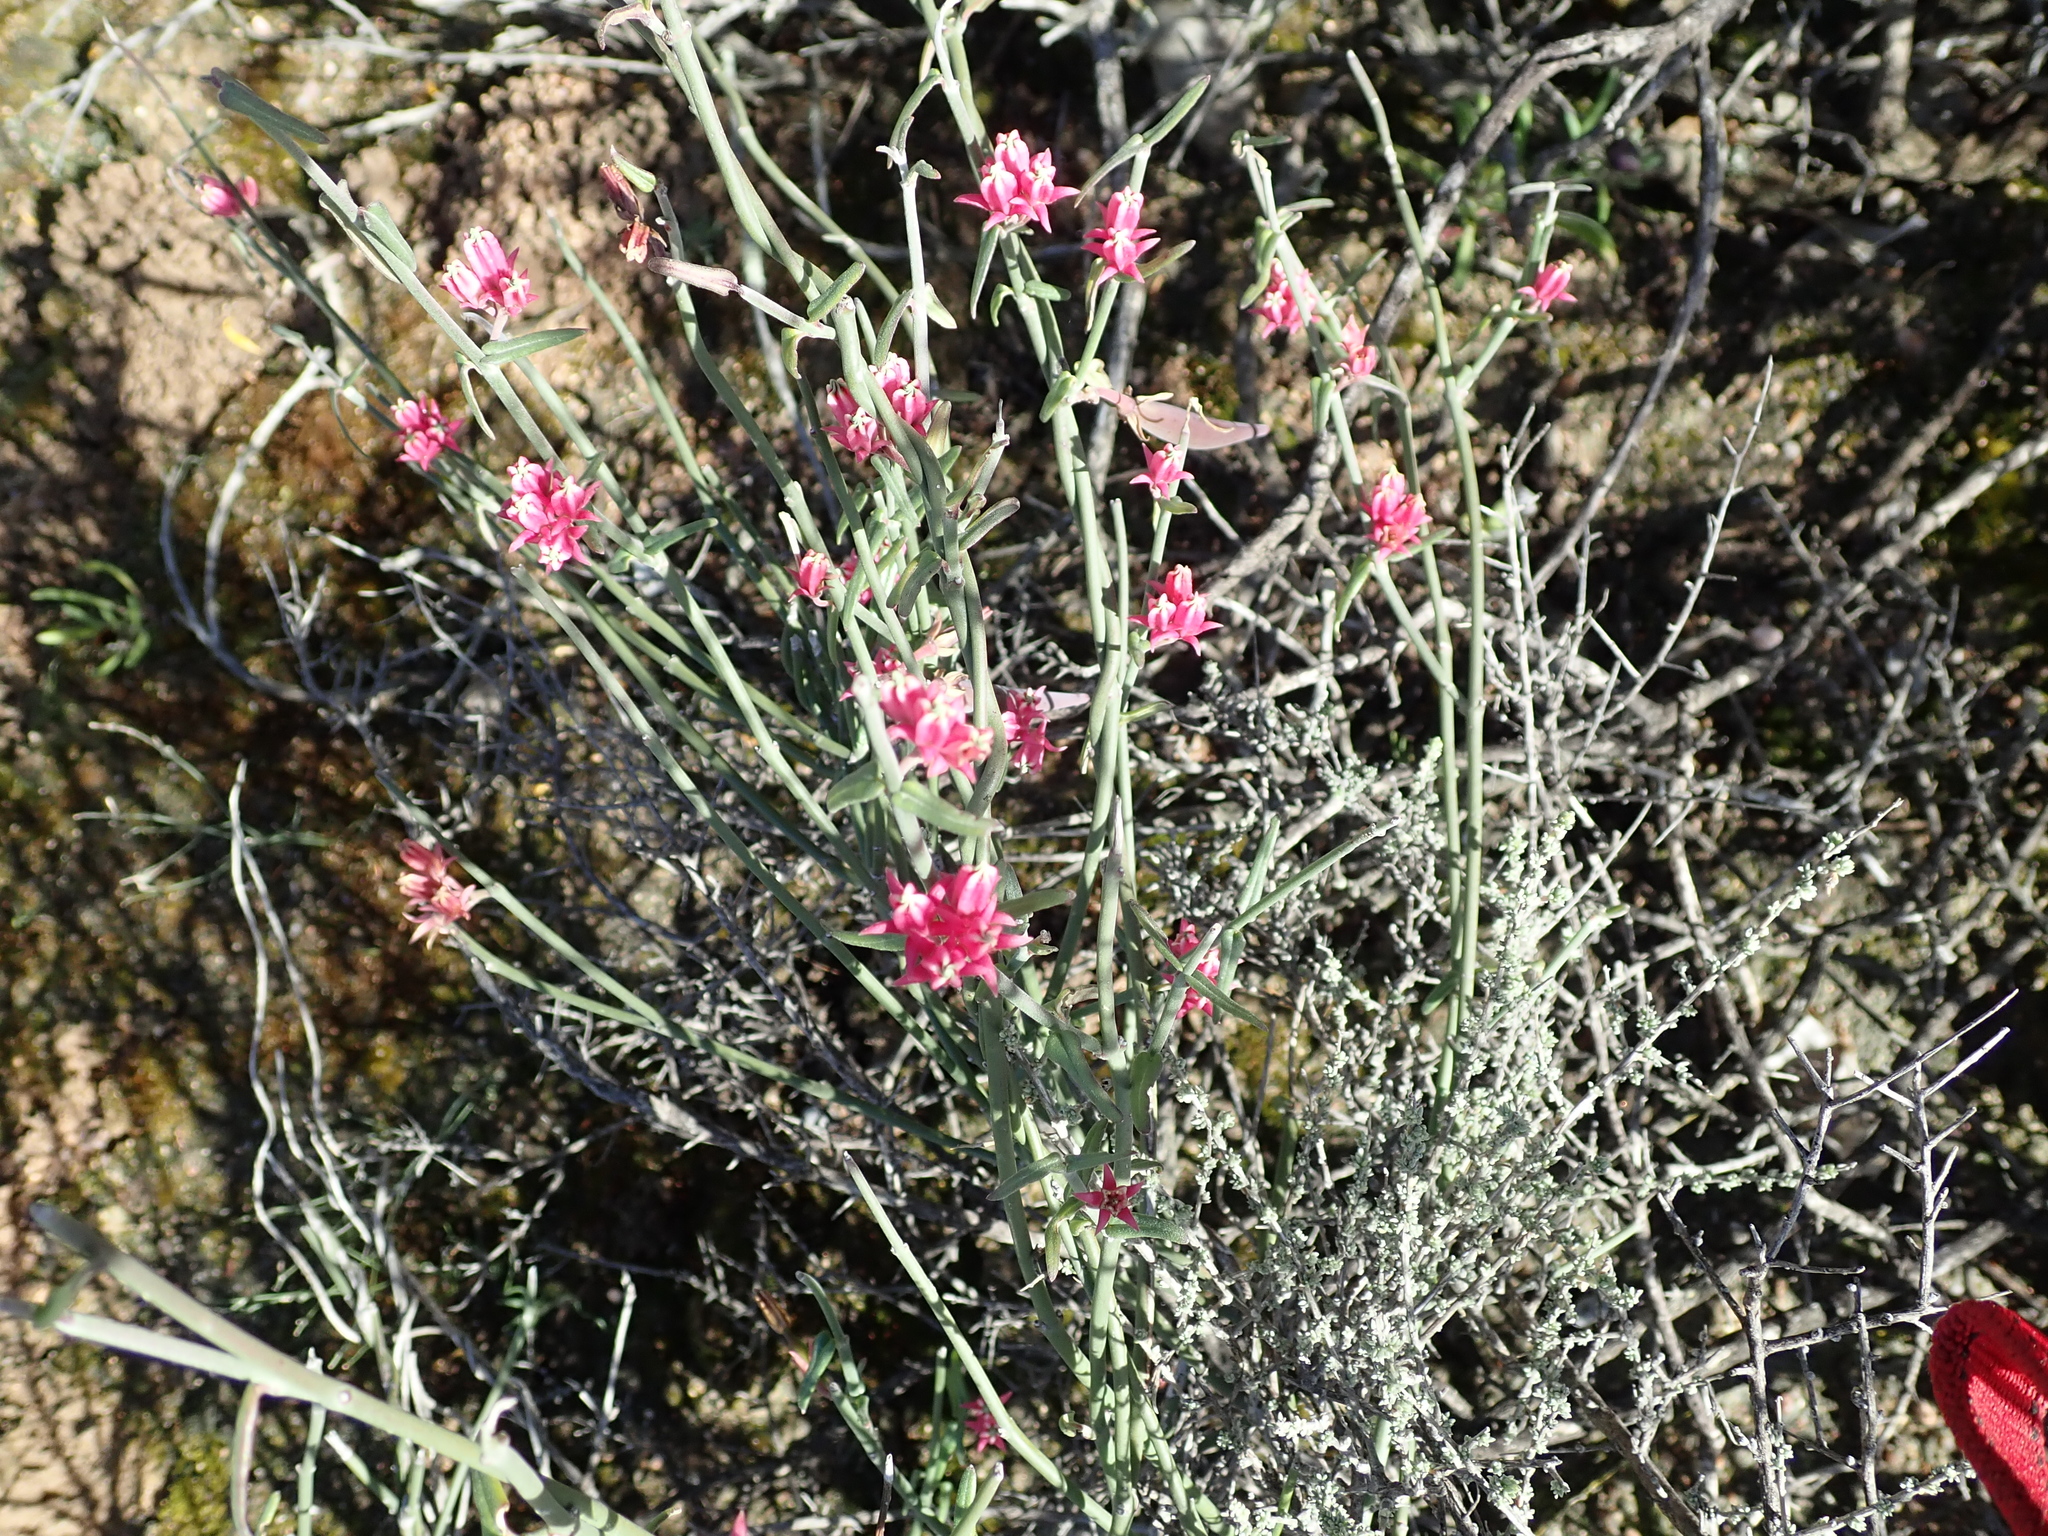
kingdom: Plantae
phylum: Tracheophyta
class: Magnoliopsida
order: Gentianales
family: Apocynaceae
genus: Microloma
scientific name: Microloma sagittatum
